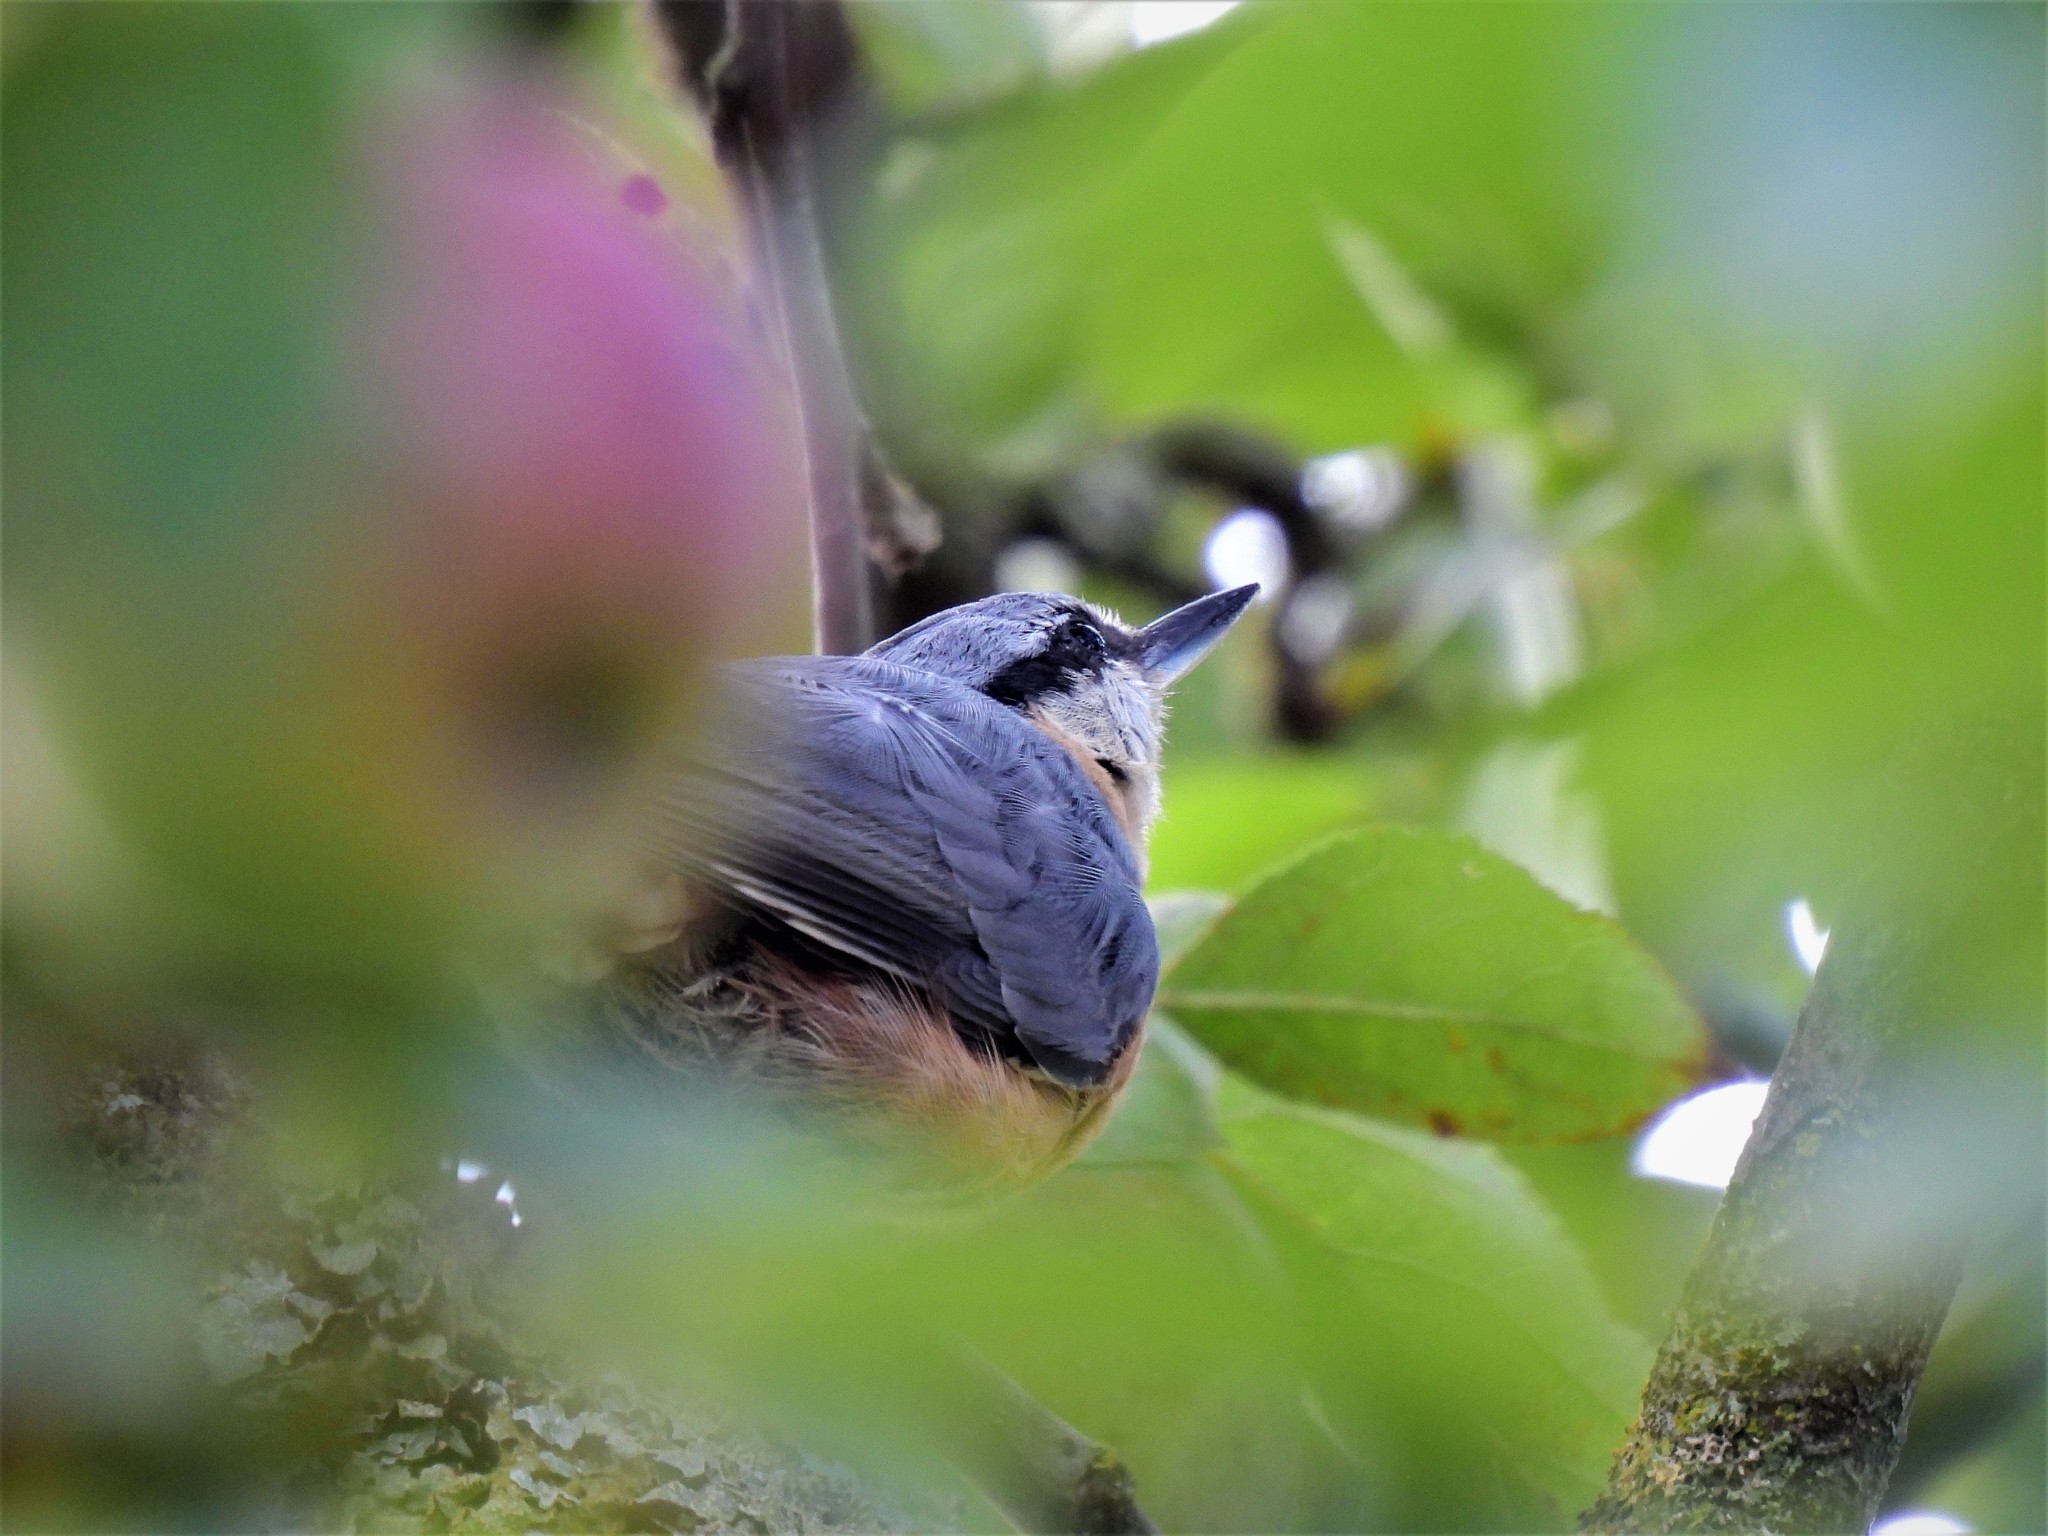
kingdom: Animalia
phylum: Chordata
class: Aves
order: Passeriformes
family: Sittidae
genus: Sitta
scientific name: Sitta europaea
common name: Eurasian nuthatch
